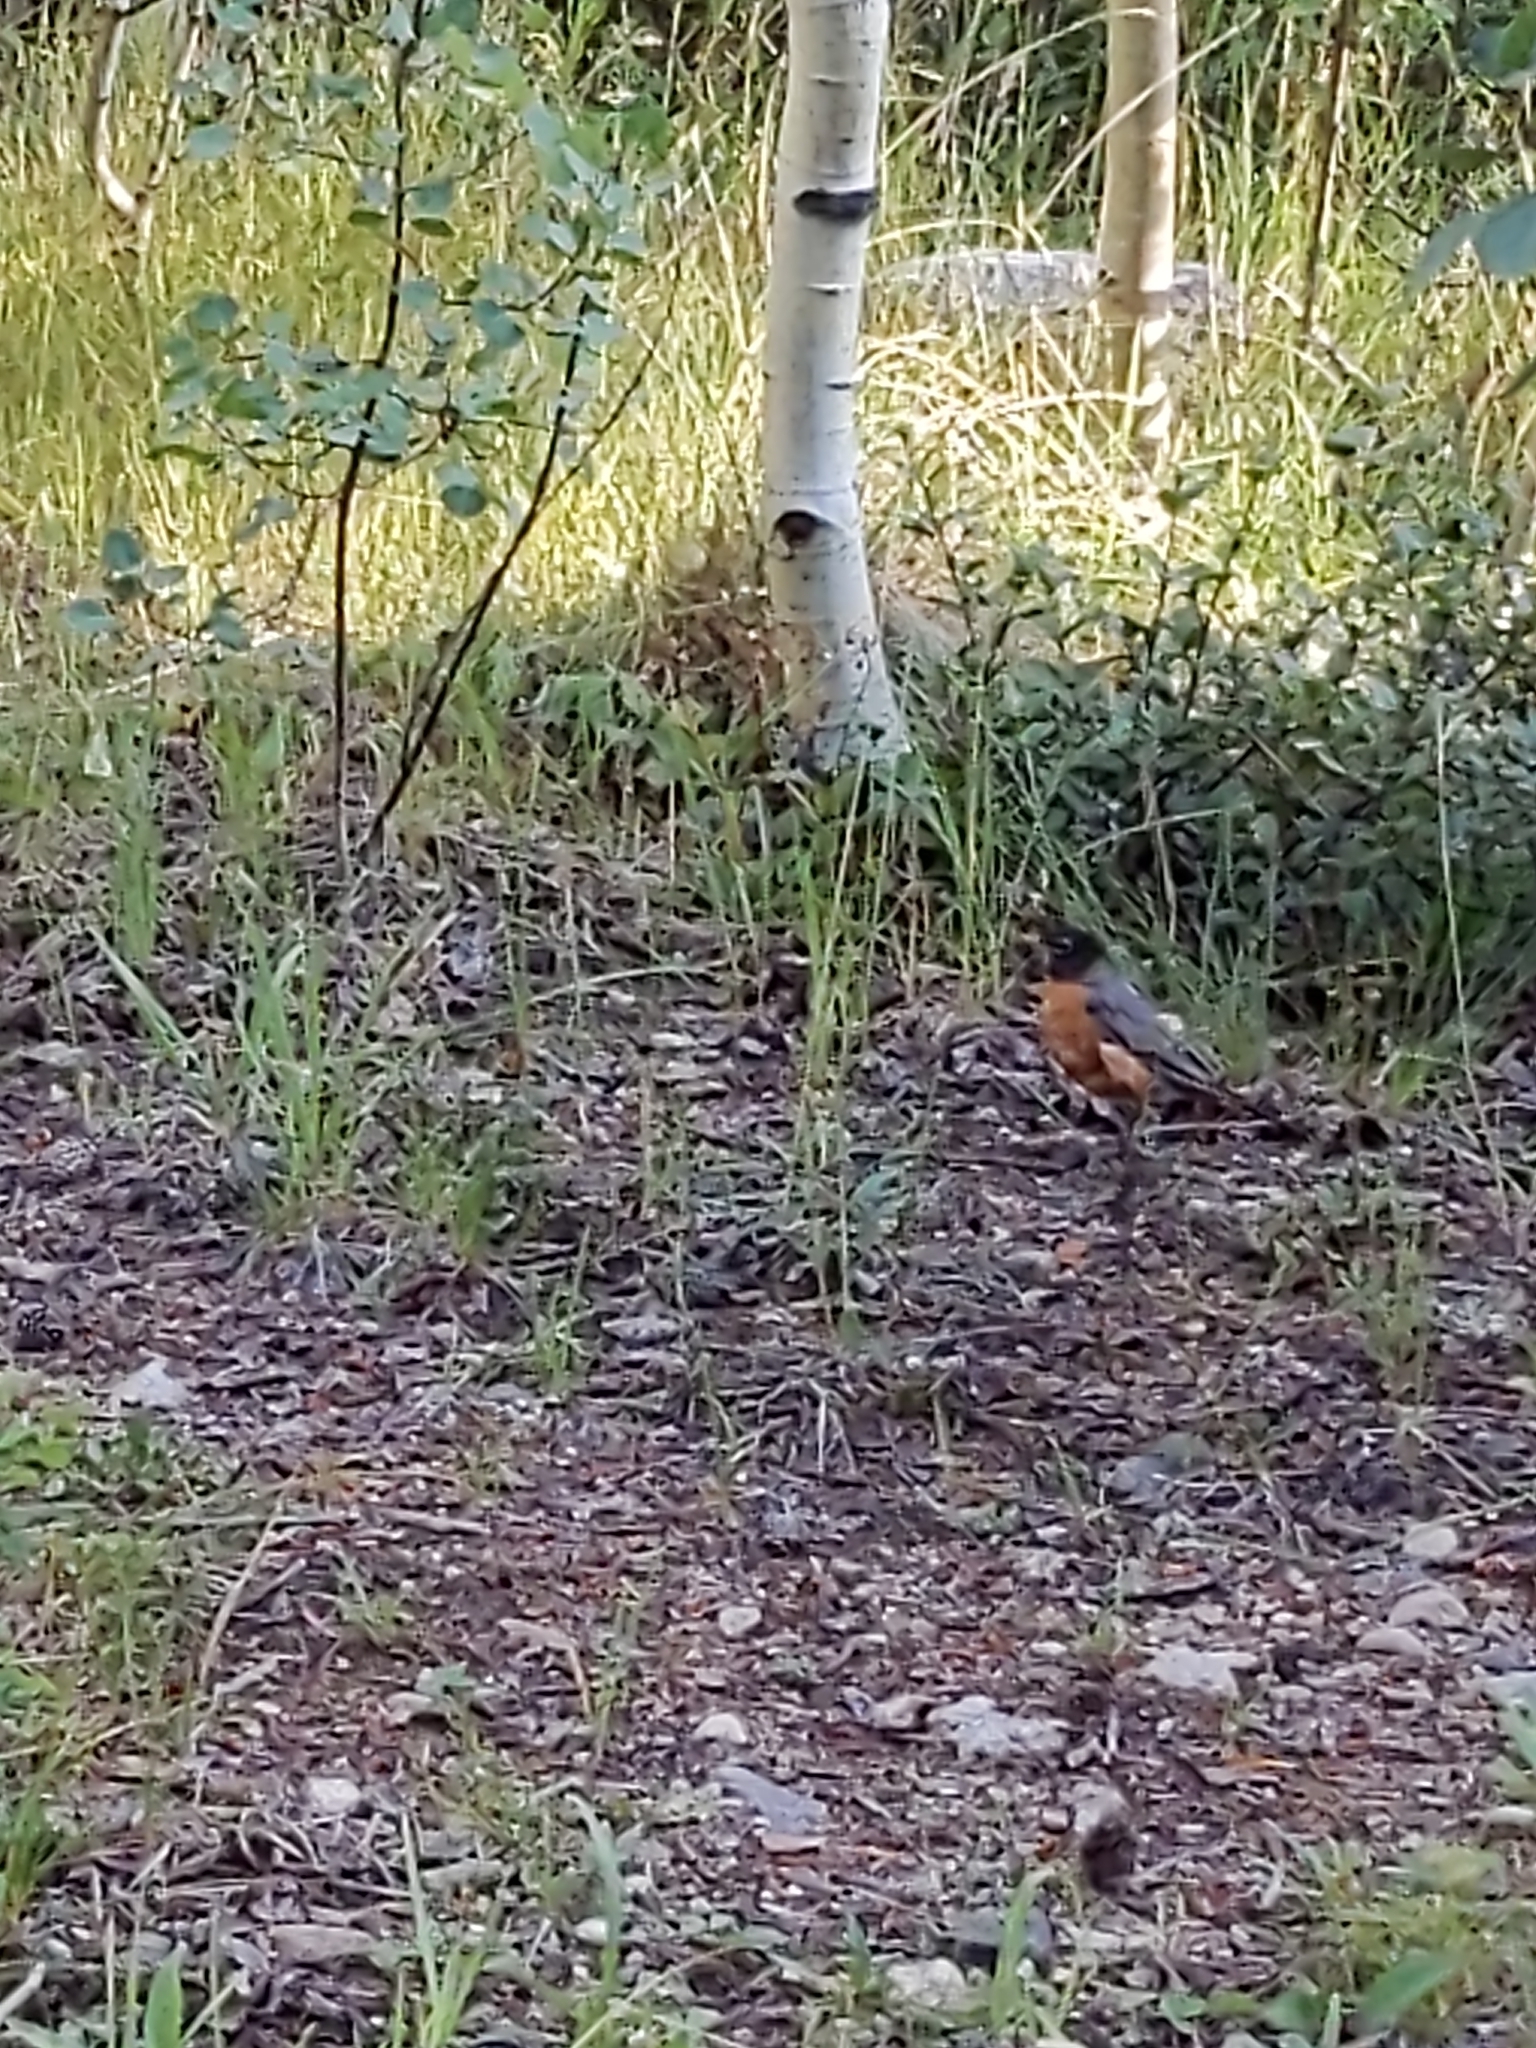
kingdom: Animalia
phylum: Chordata
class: Aves
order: Passeriformes
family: Turdidae
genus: Turdus
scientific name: Turdus migratorius
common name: American robin
